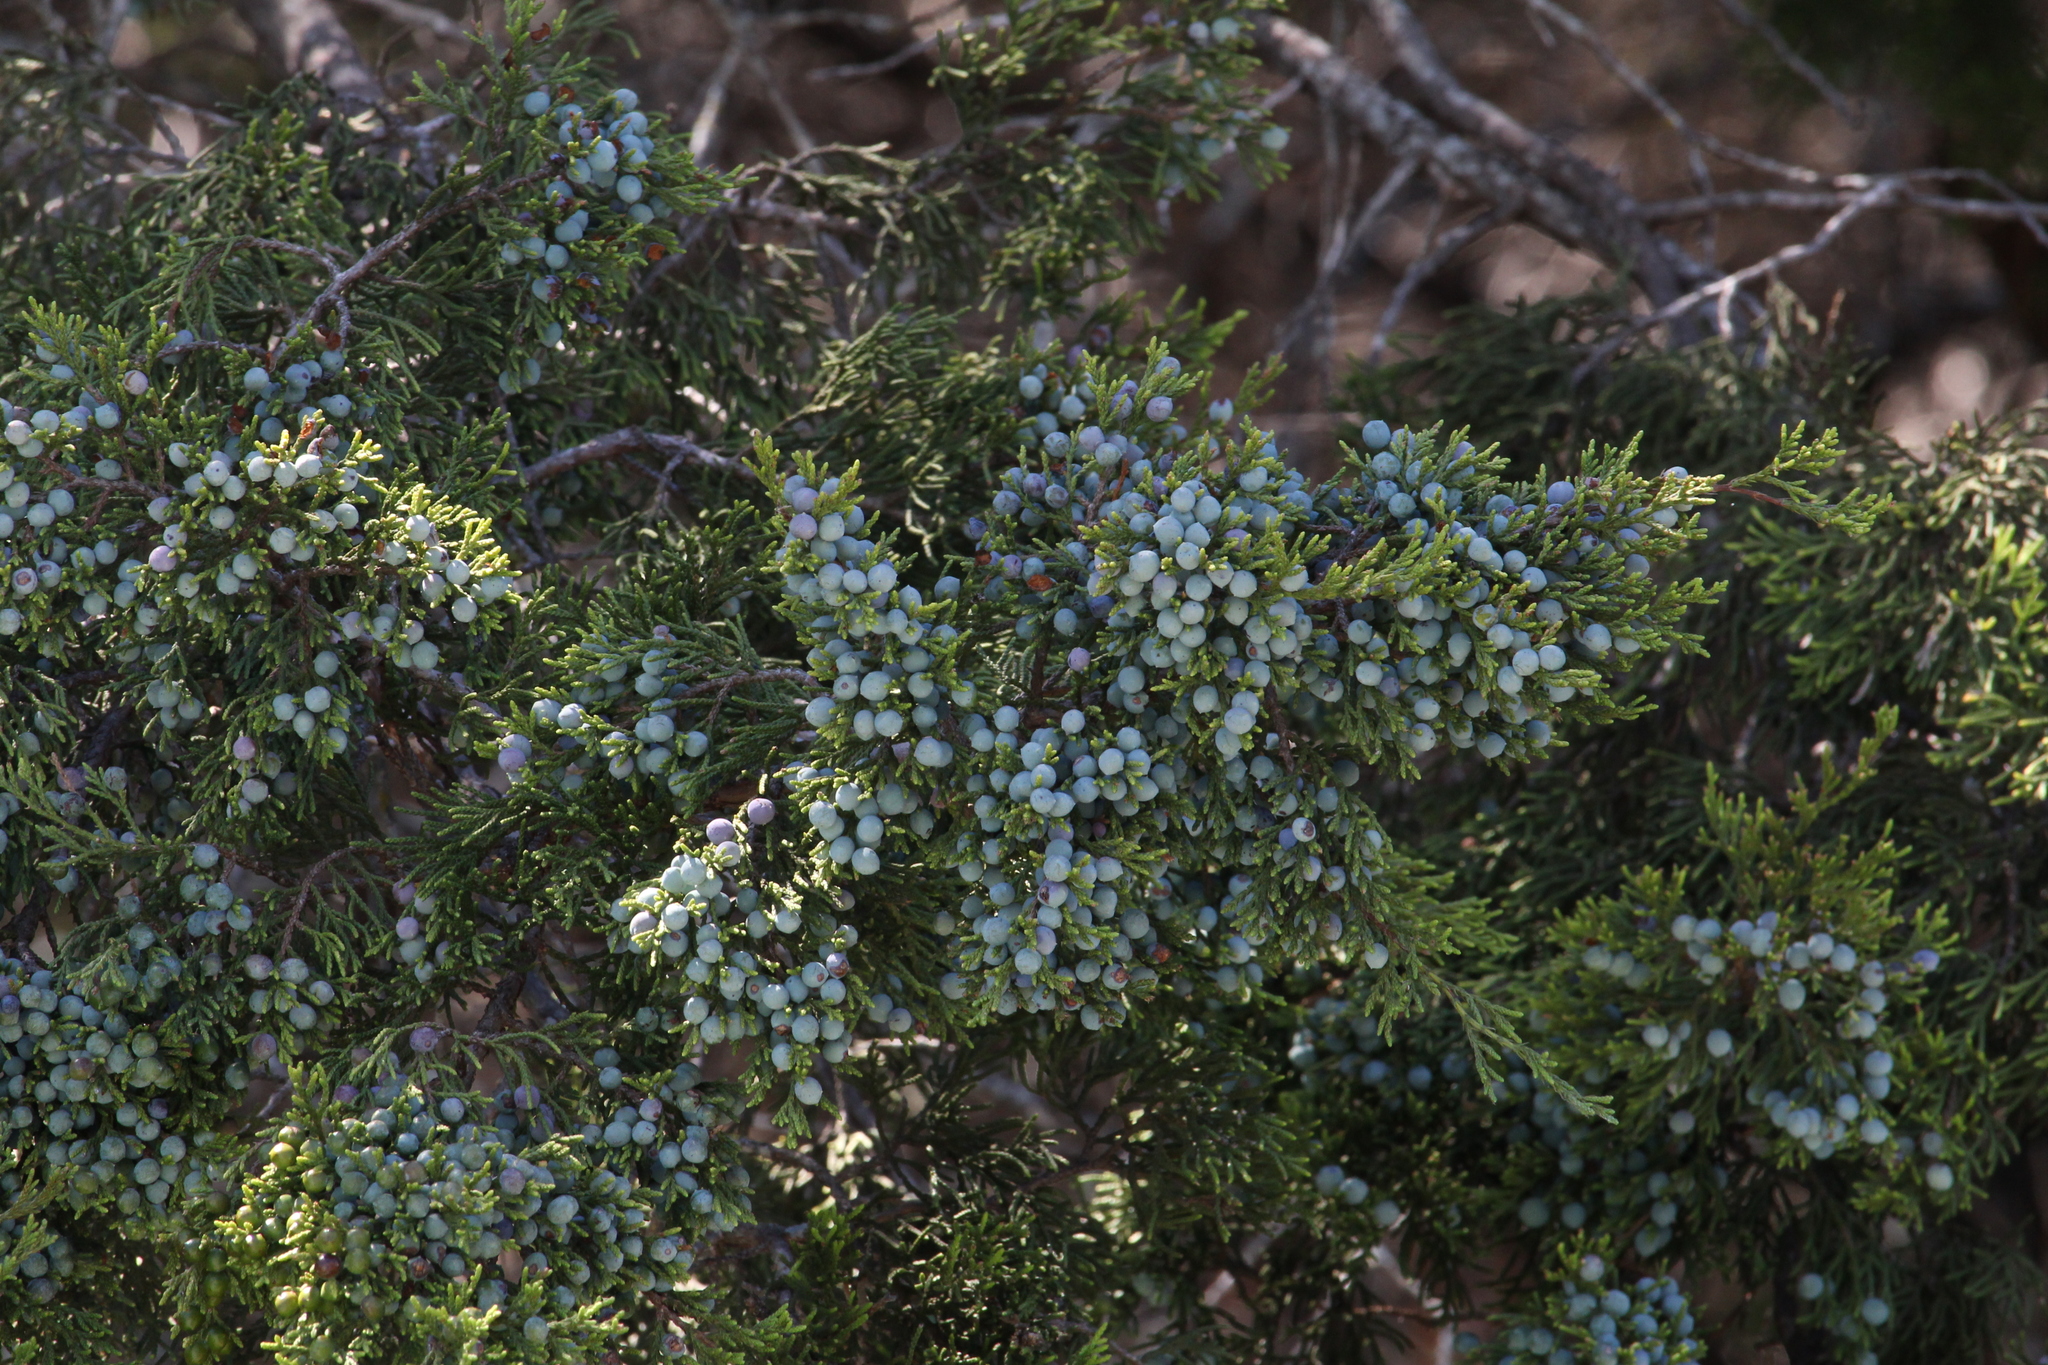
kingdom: Plantae
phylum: Tracheophyta
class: Pinopsida
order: Pinales
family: Cupressaceae
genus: Juniperus
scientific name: Juniperus ashei
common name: Mexican juniper
